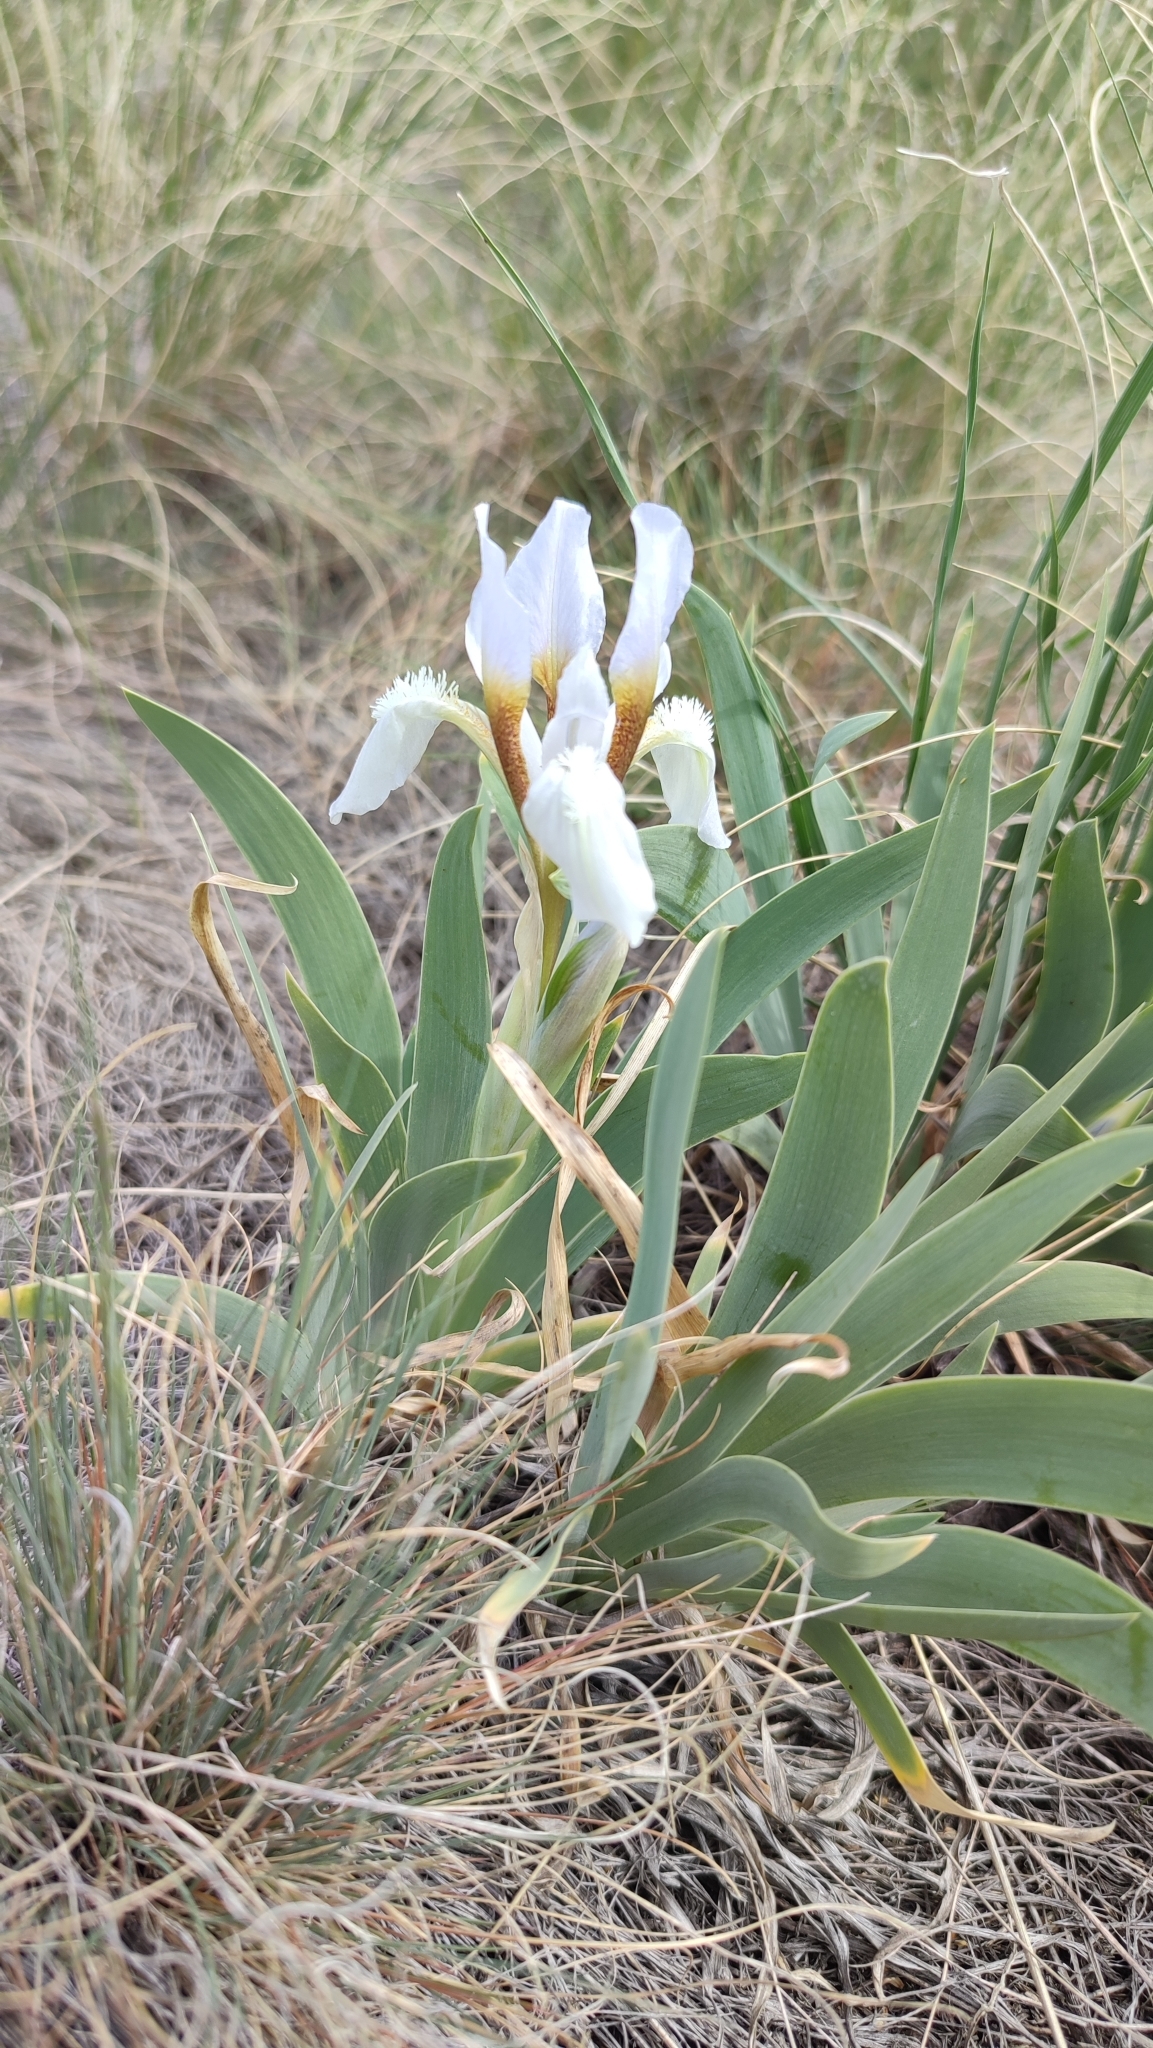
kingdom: Plantae
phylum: Tracheophyta
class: Liliopsida
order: Asparagales
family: Iridaceae
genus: Iris
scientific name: Iris glaucescens
